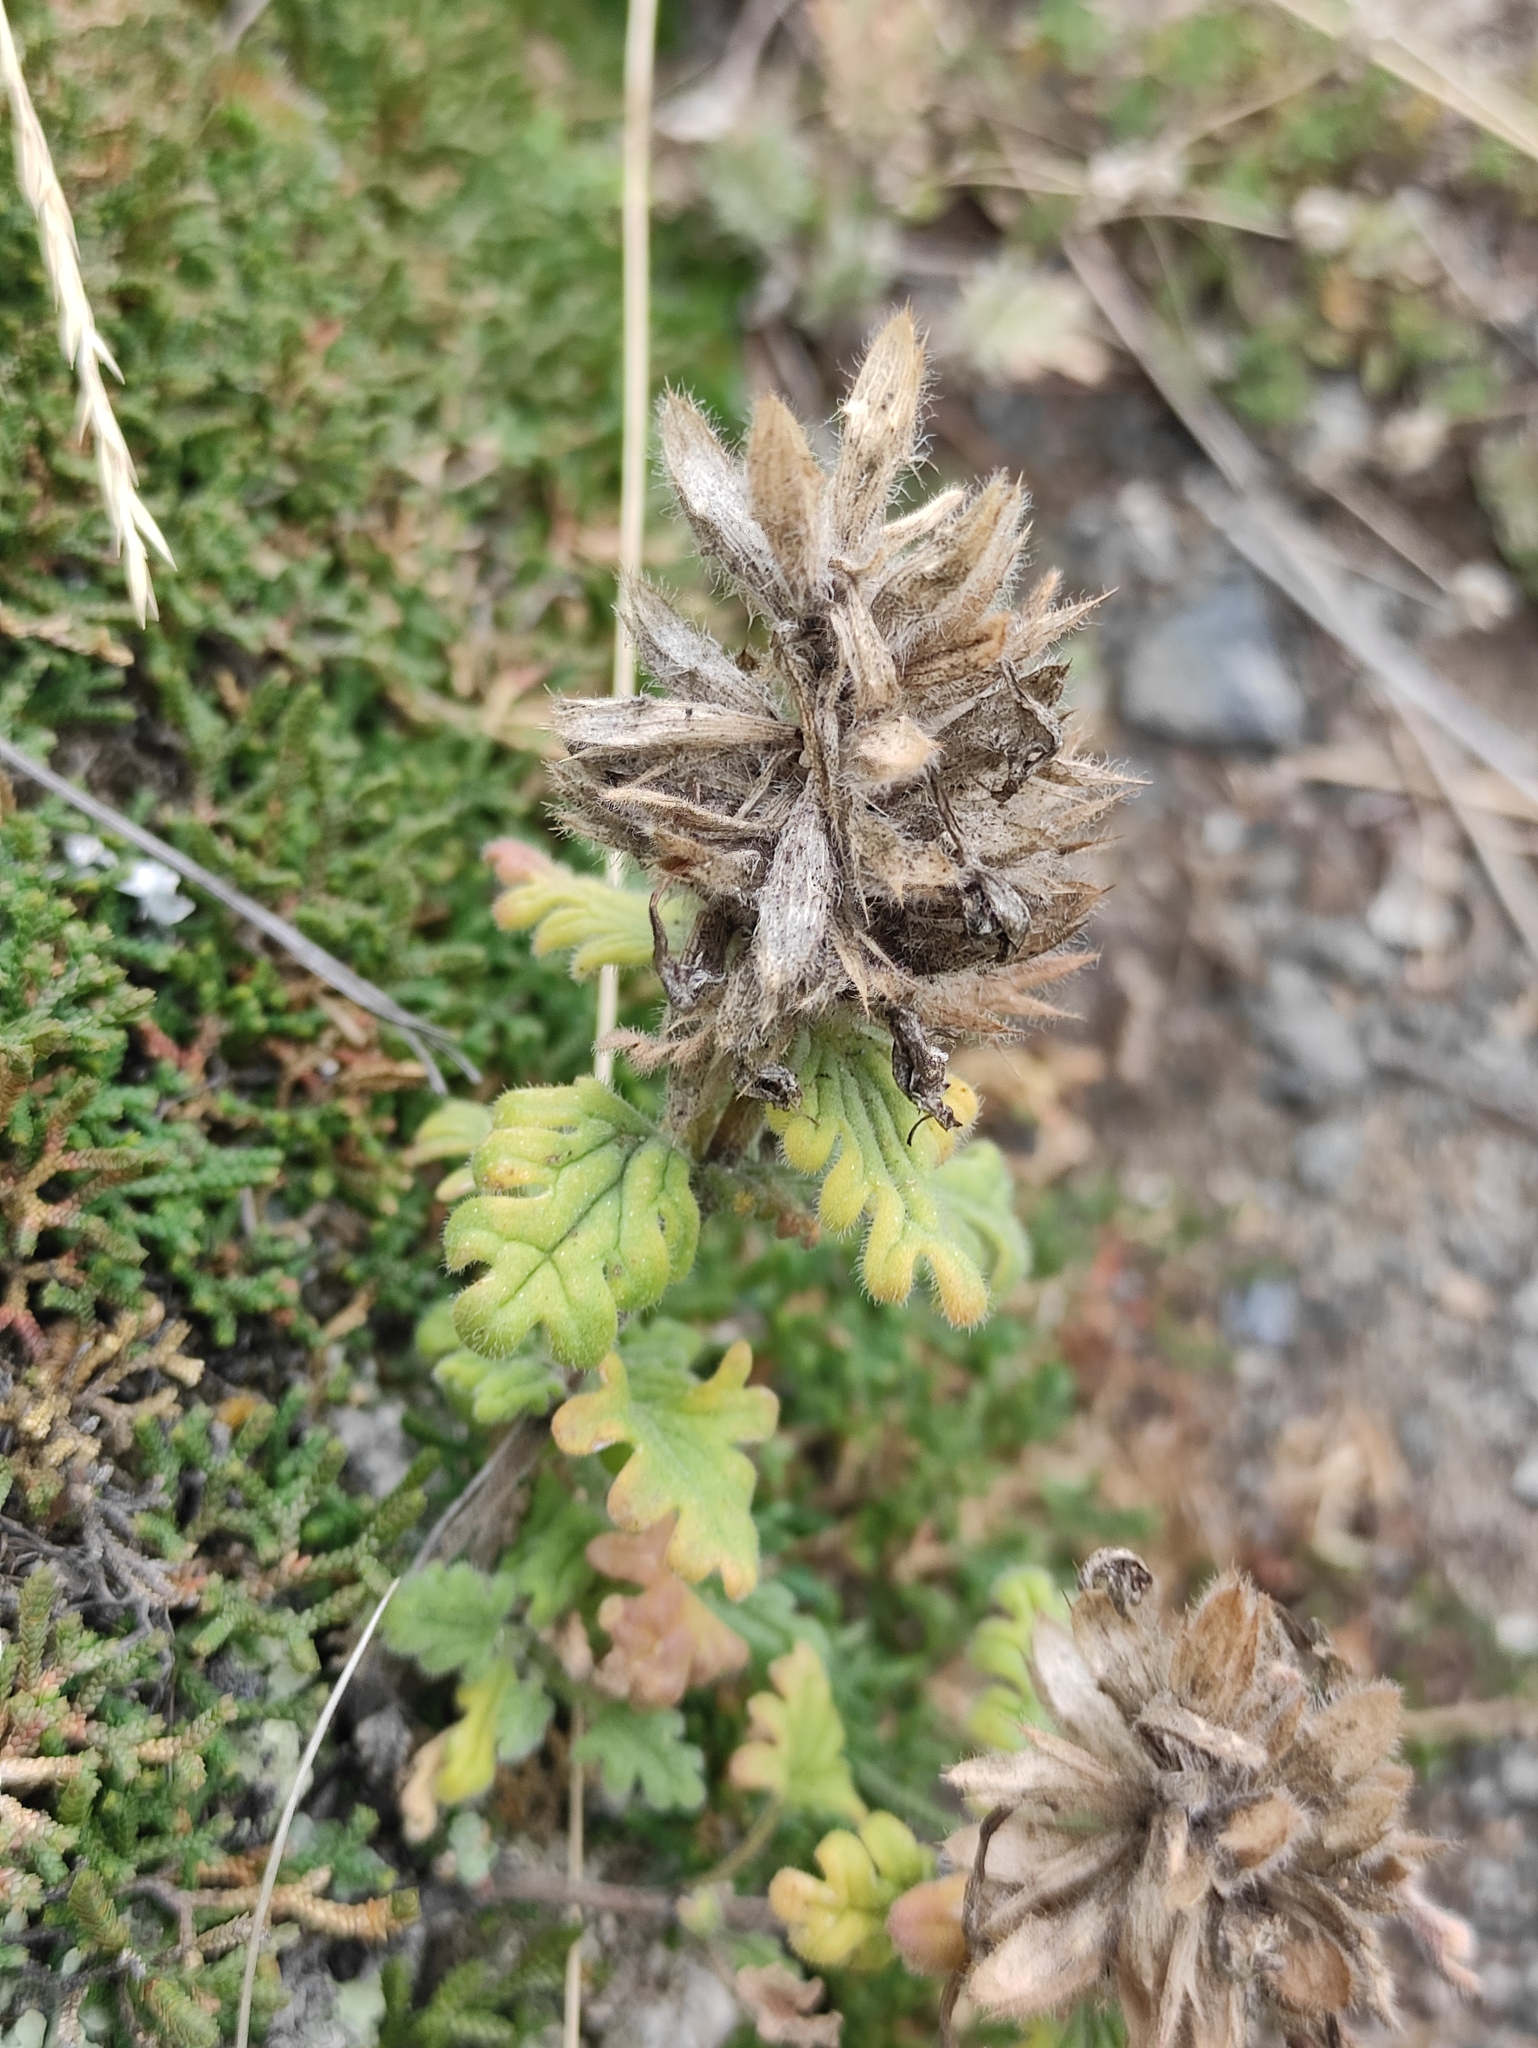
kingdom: Plantae
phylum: Tracheophyta
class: Magnoliopsida
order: Lamiales
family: Lamiaceae
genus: Dracocephalum
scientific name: Dracocephalum pinnatum
